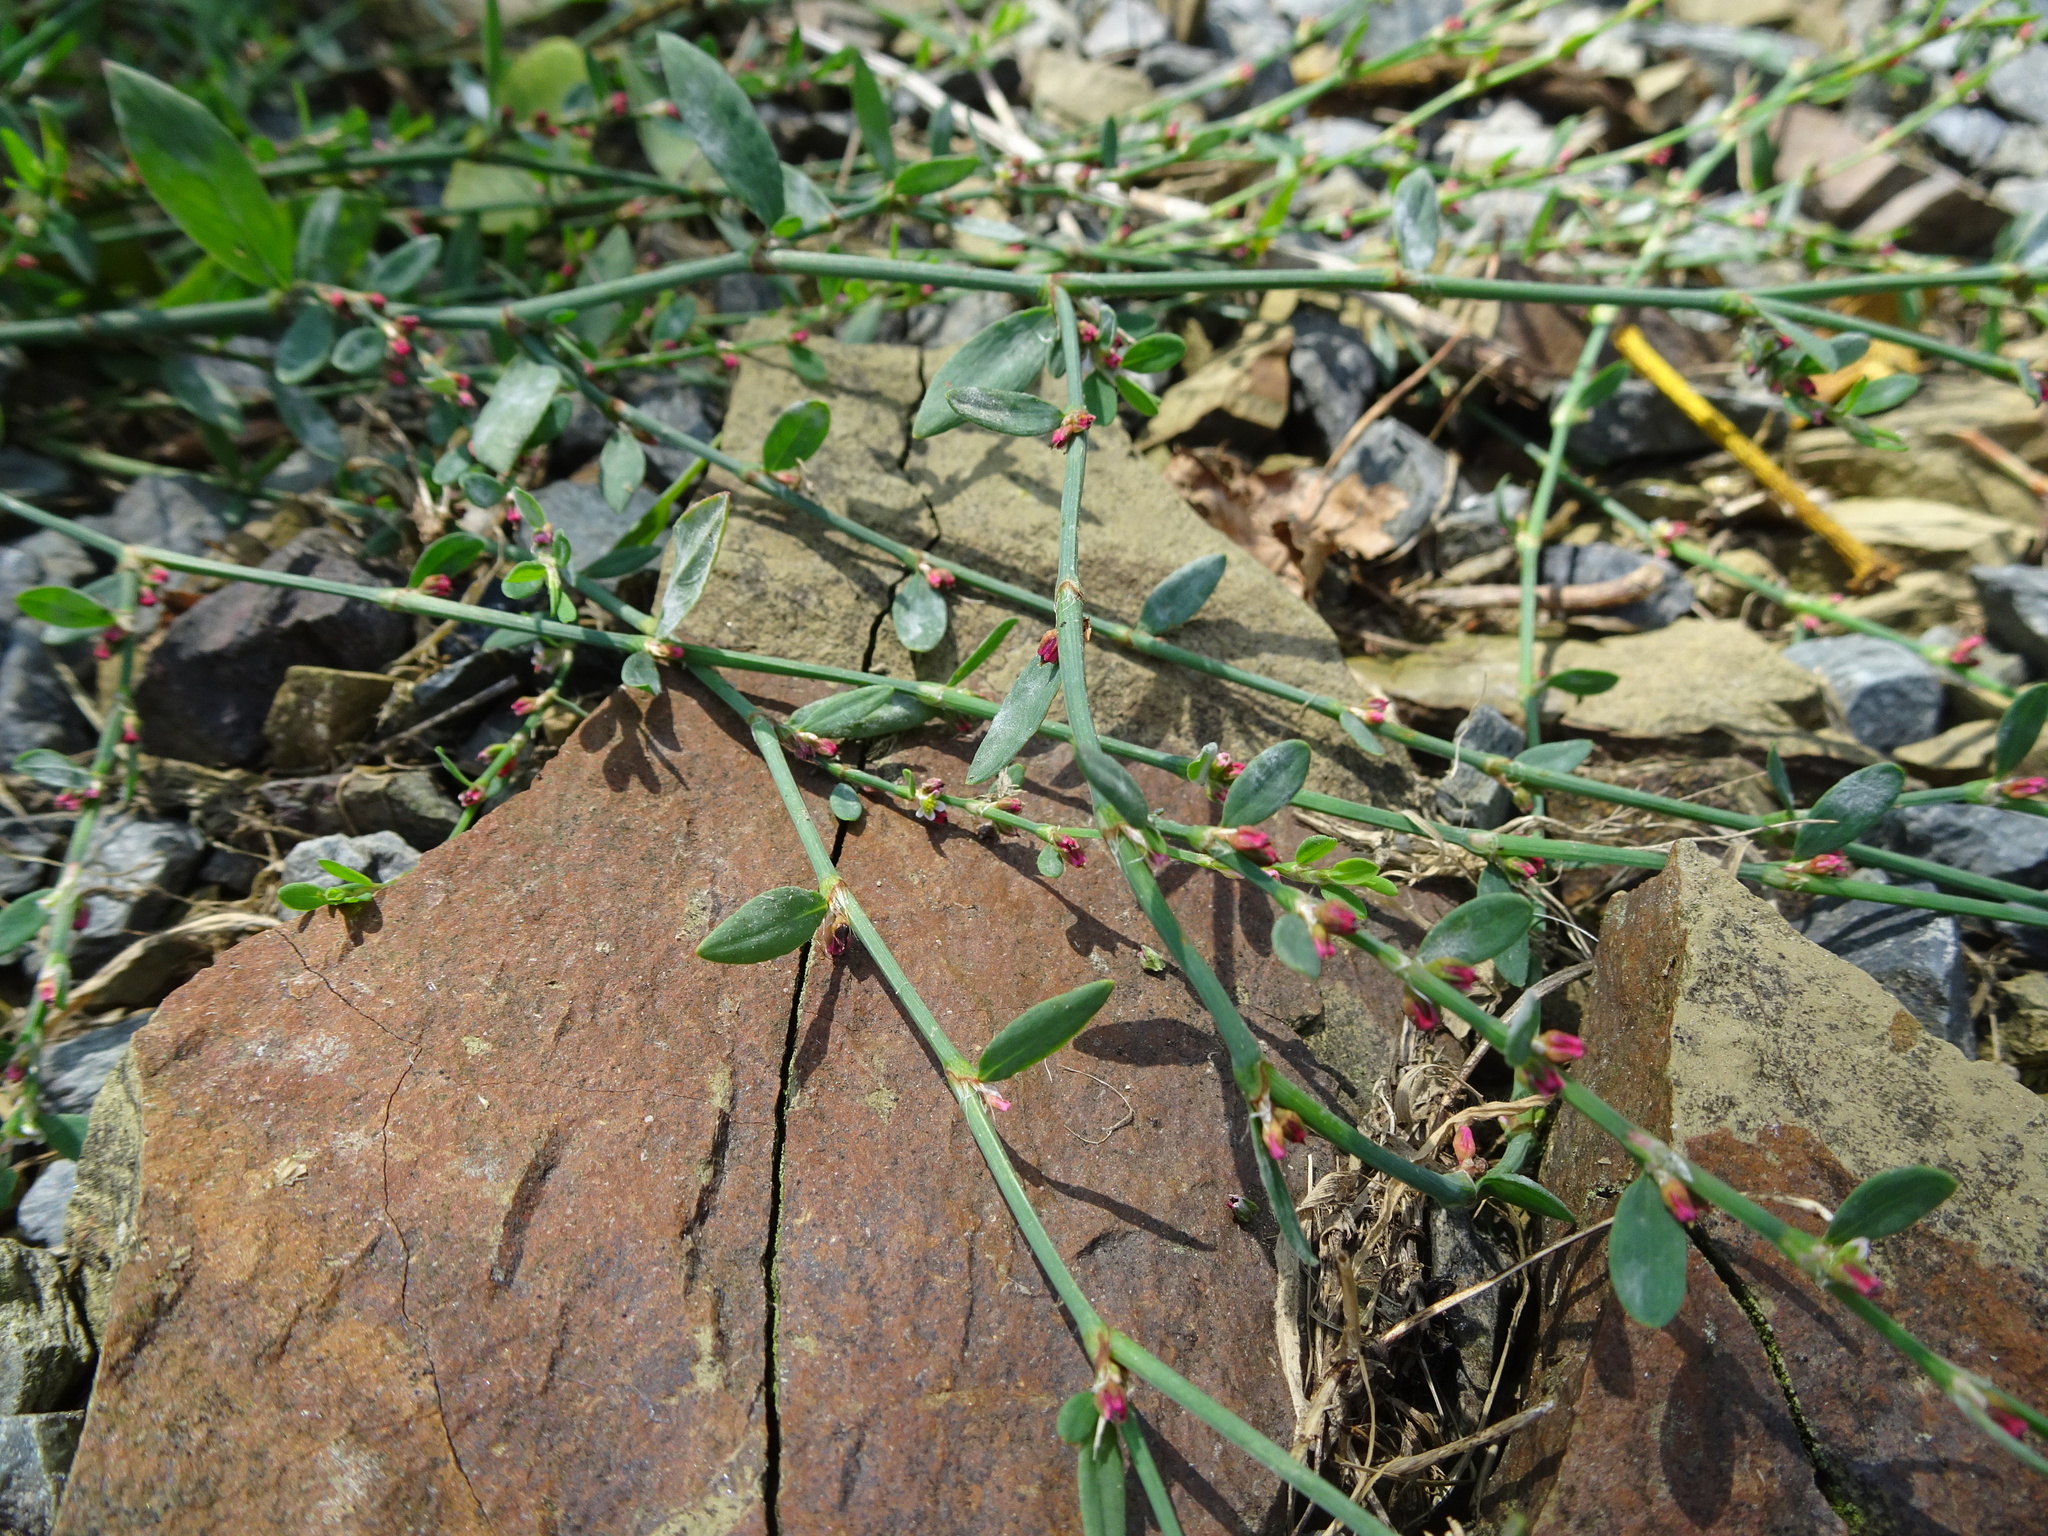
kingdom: Plantae
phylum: Tracheophyta
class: Magnoliopsida
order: Caryophyllales
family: Polygonaceae
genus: Polygonum
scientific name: Polygonum aviculare
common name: Prostrate knotweed
